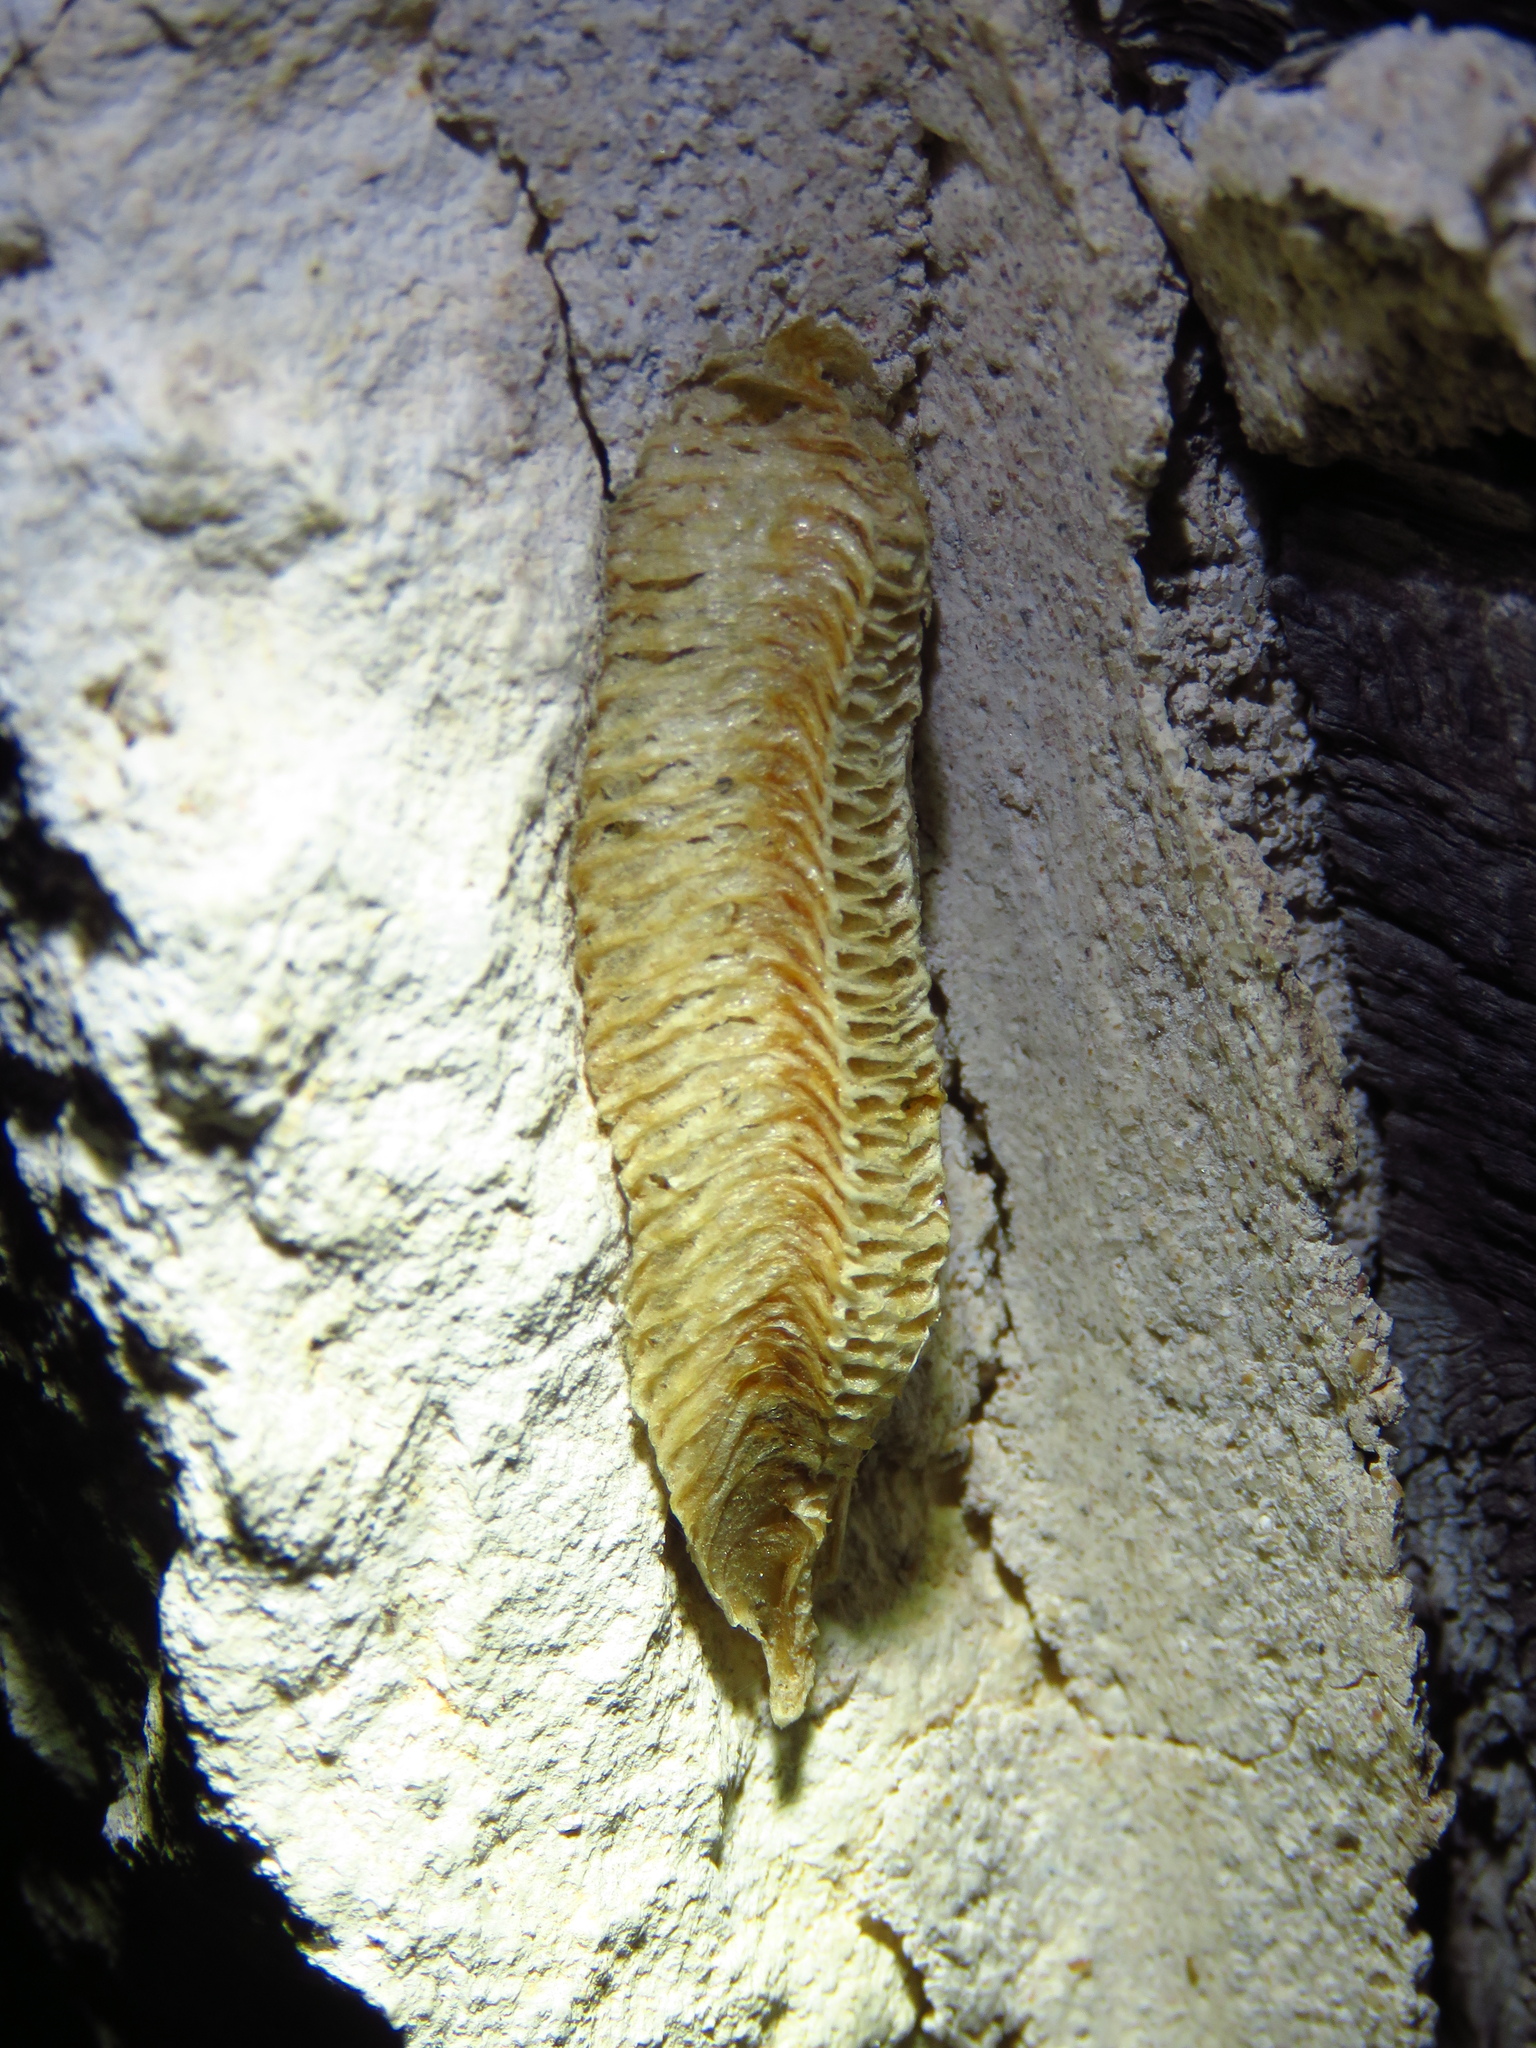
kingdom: Animalia
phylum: Arthropoda
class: Insecta
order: Mantodea
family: Mantidae
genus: Stagmomantis
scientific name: Stagmomantis carolina
